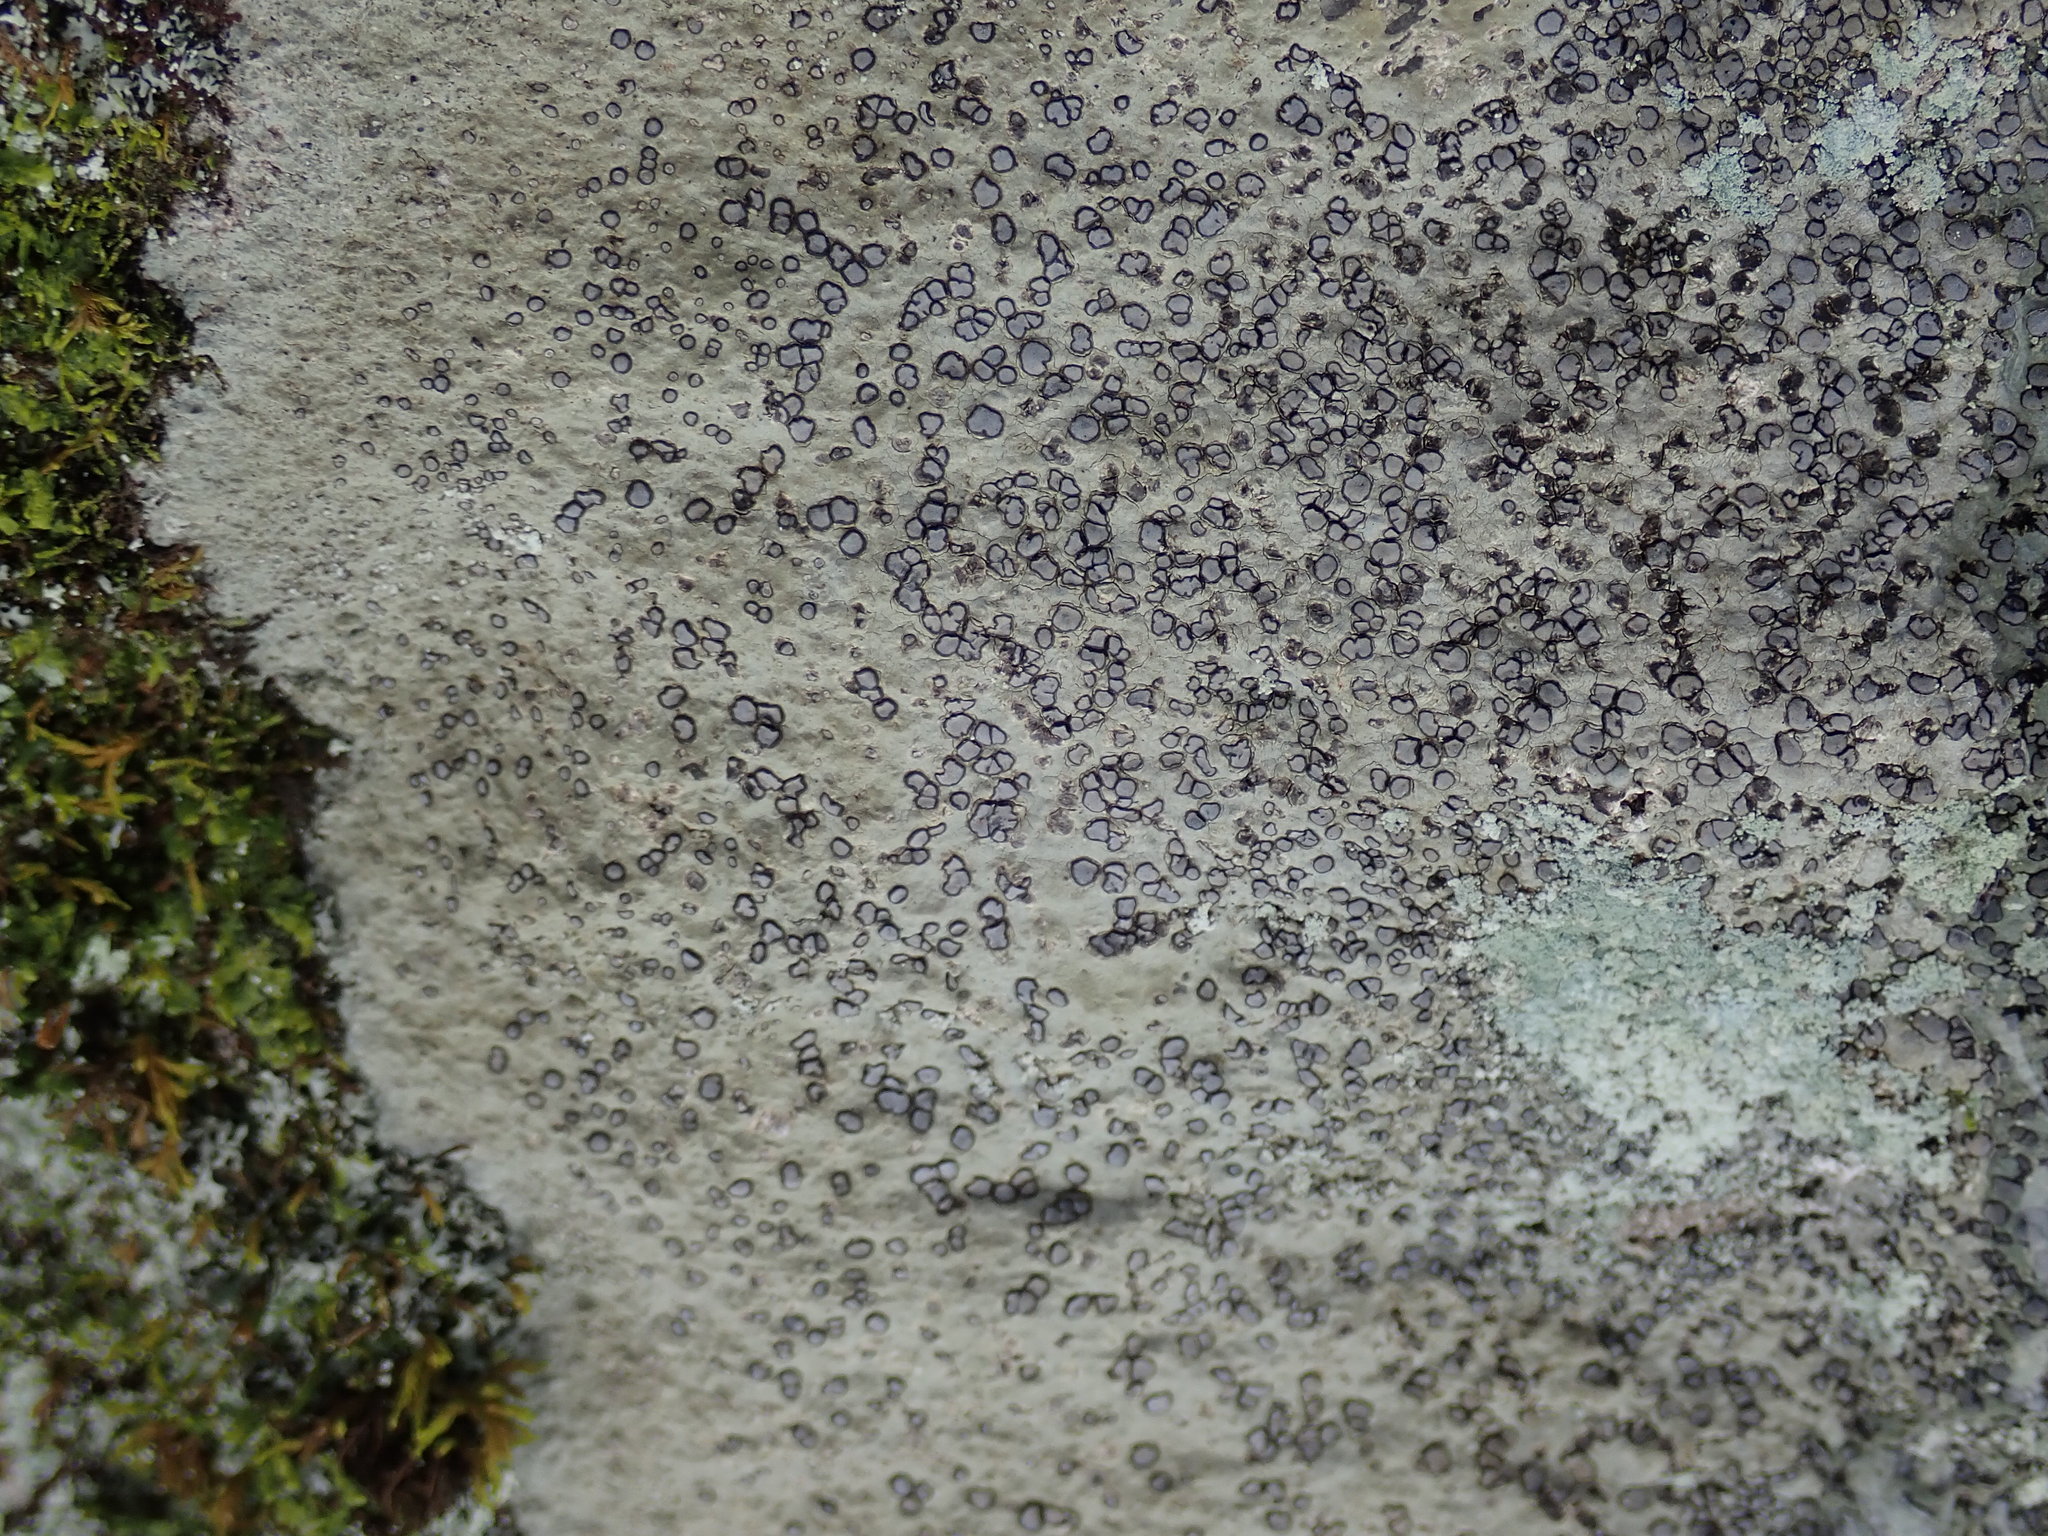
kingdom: Fungi
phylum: Ascomycota
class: Lecanoromycetes
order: Lecideales
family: Lecideaceae
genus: Porpidia
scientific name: Porpidia albocaerulescens
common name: Smokey-eyed boulder lichen
